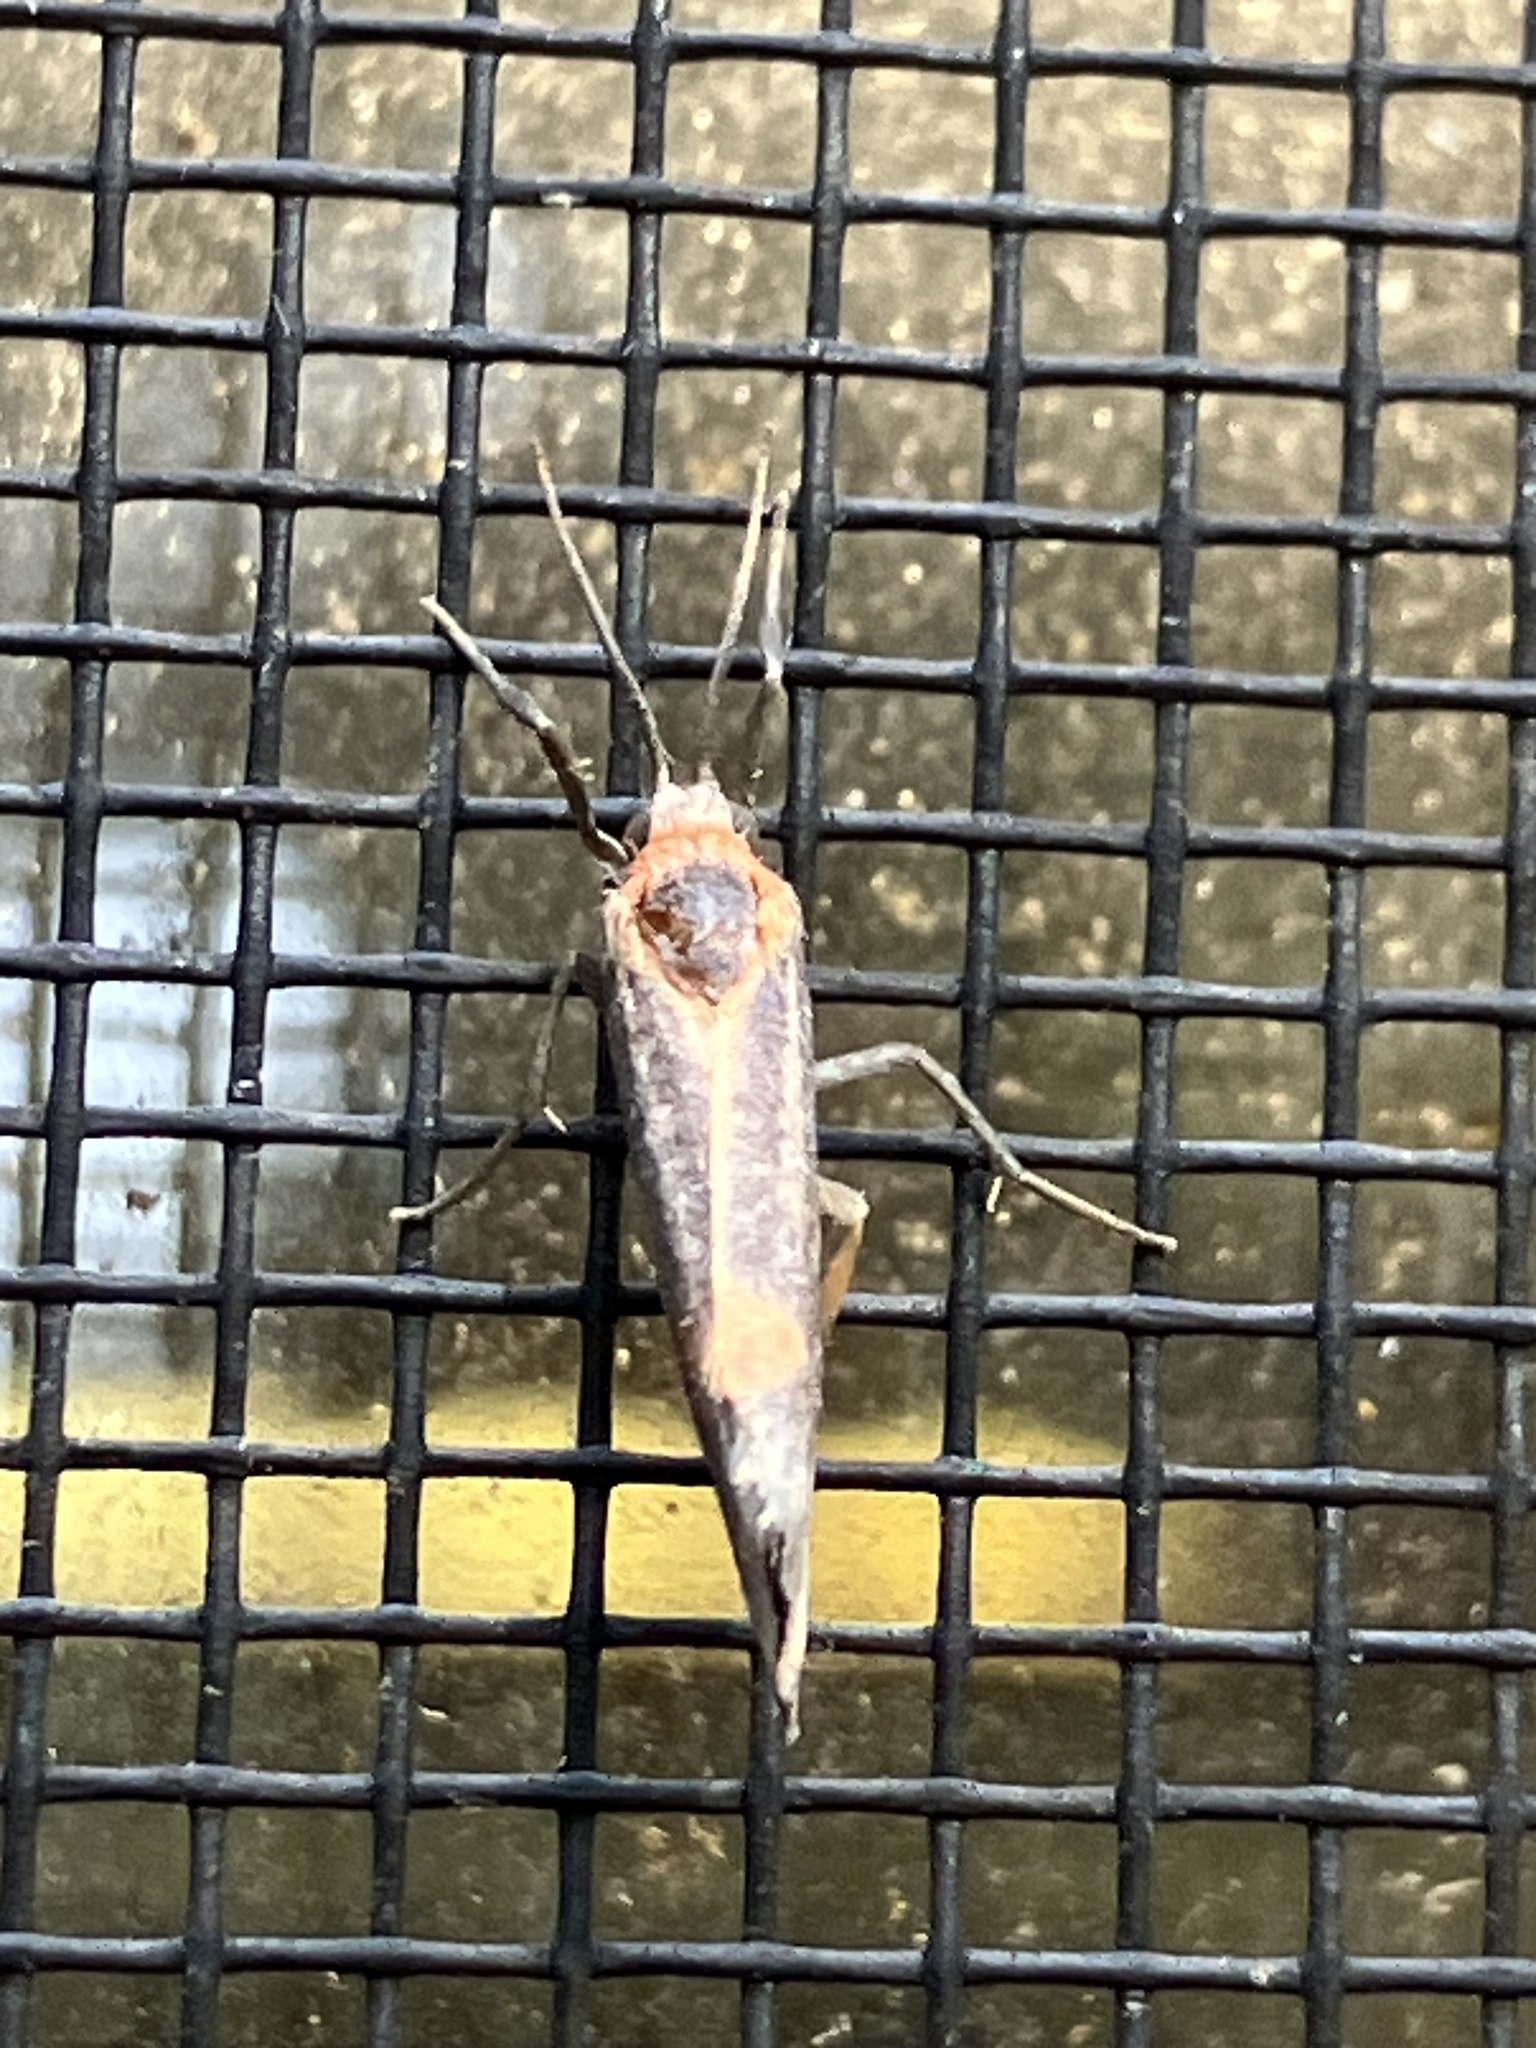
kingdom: Animalia
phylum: Arthropoda
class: Insecta
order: Lepidoptera
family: Erebidae
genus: Cisthene
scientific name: Cisthene striata
